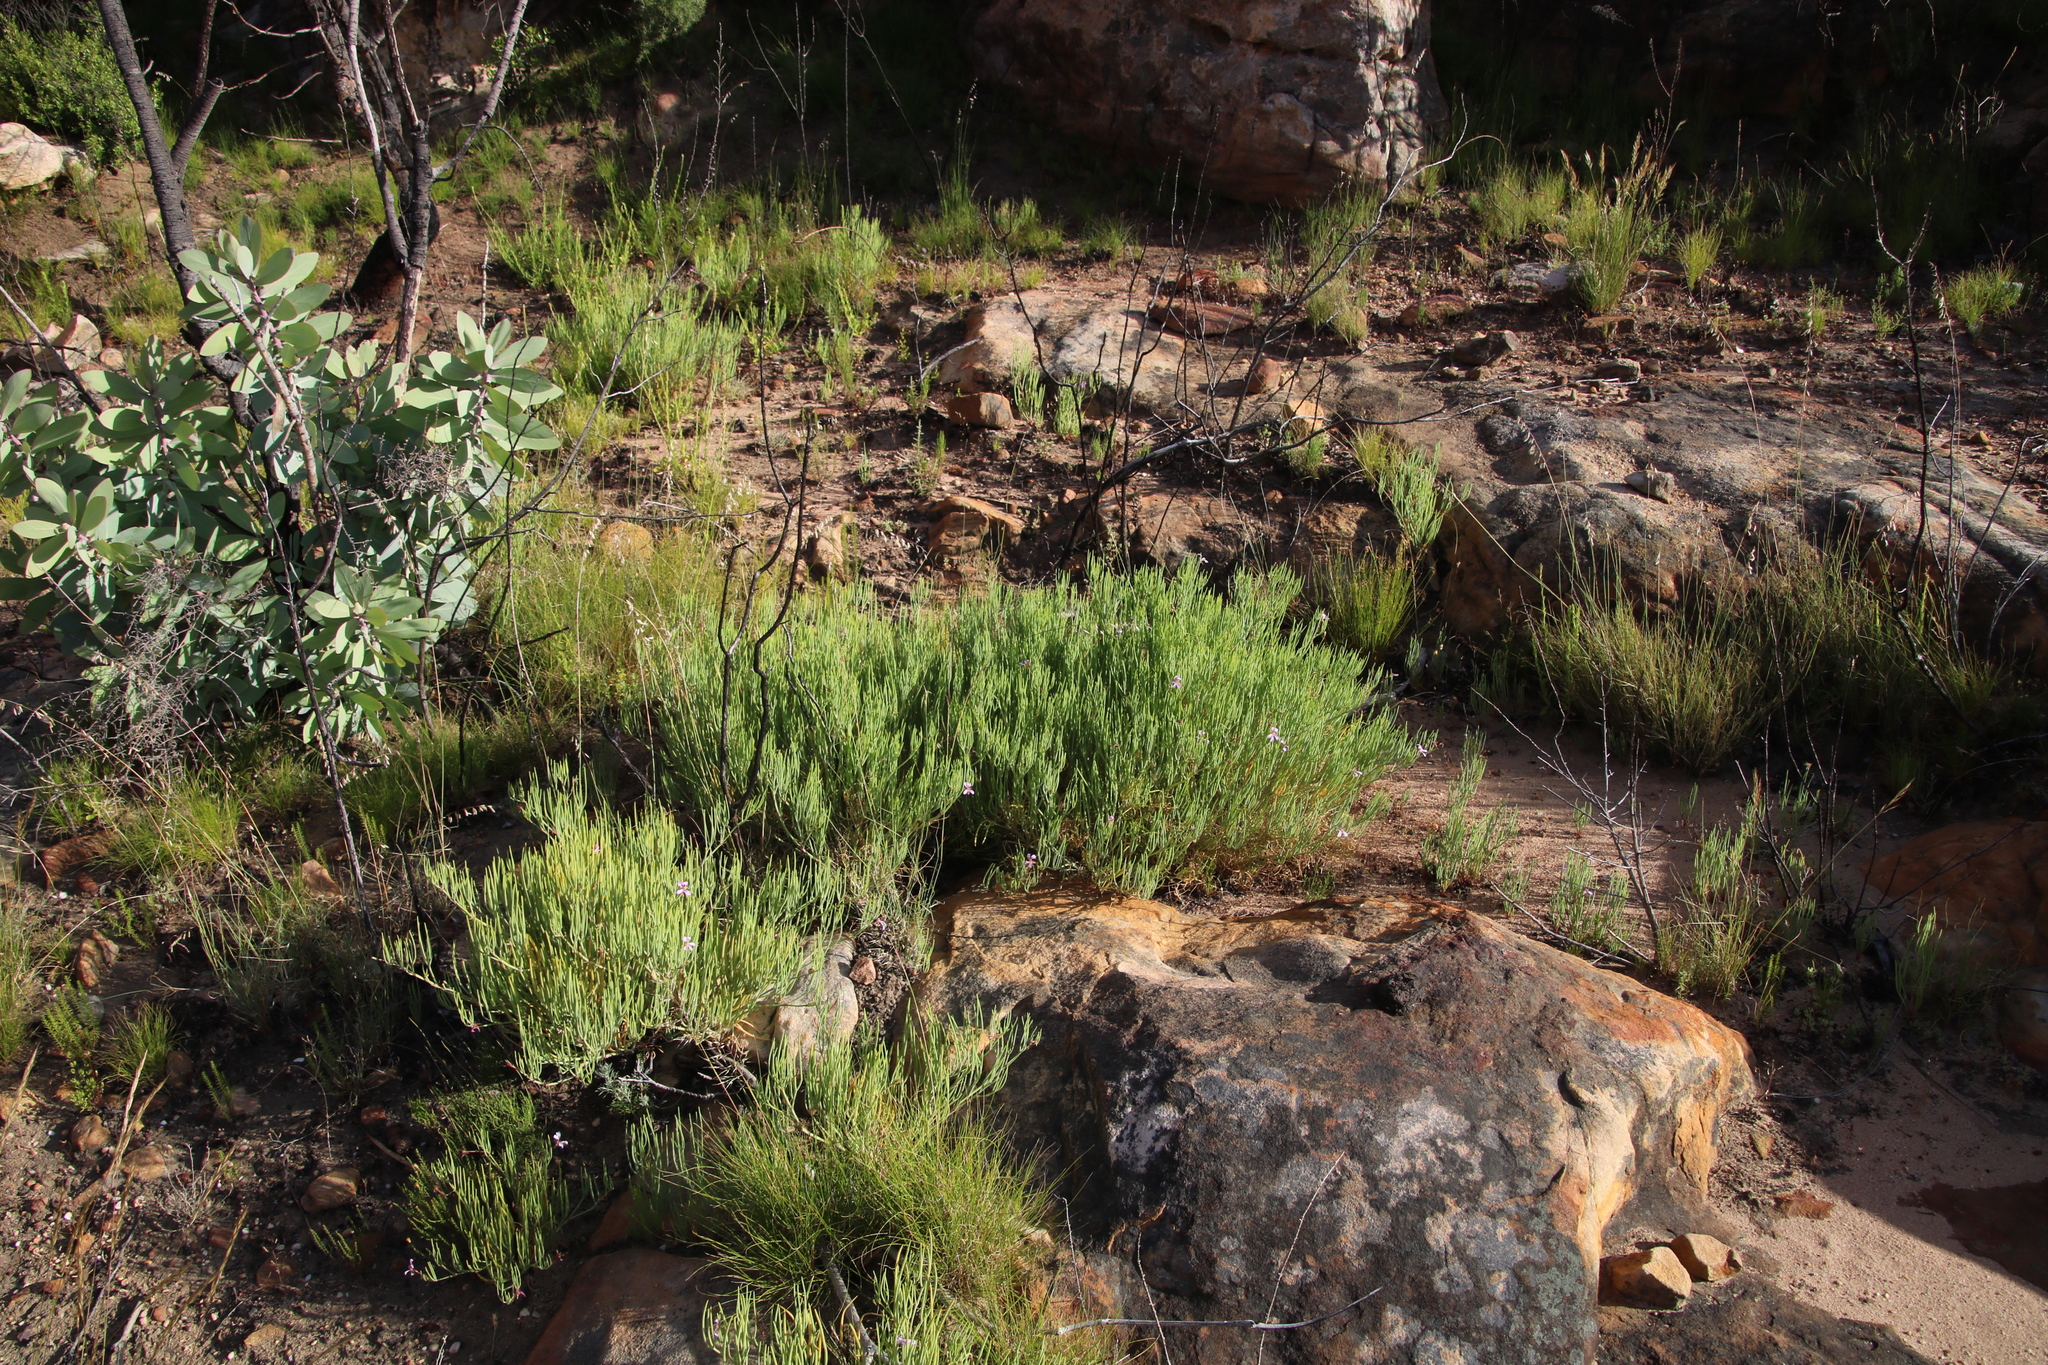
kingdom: Plantae
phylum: Tracheophyta
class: Magnoliopsida
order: Geraniales
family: Geraniaceae
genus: Pelargonium
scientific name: Pelargonium laevigatum
